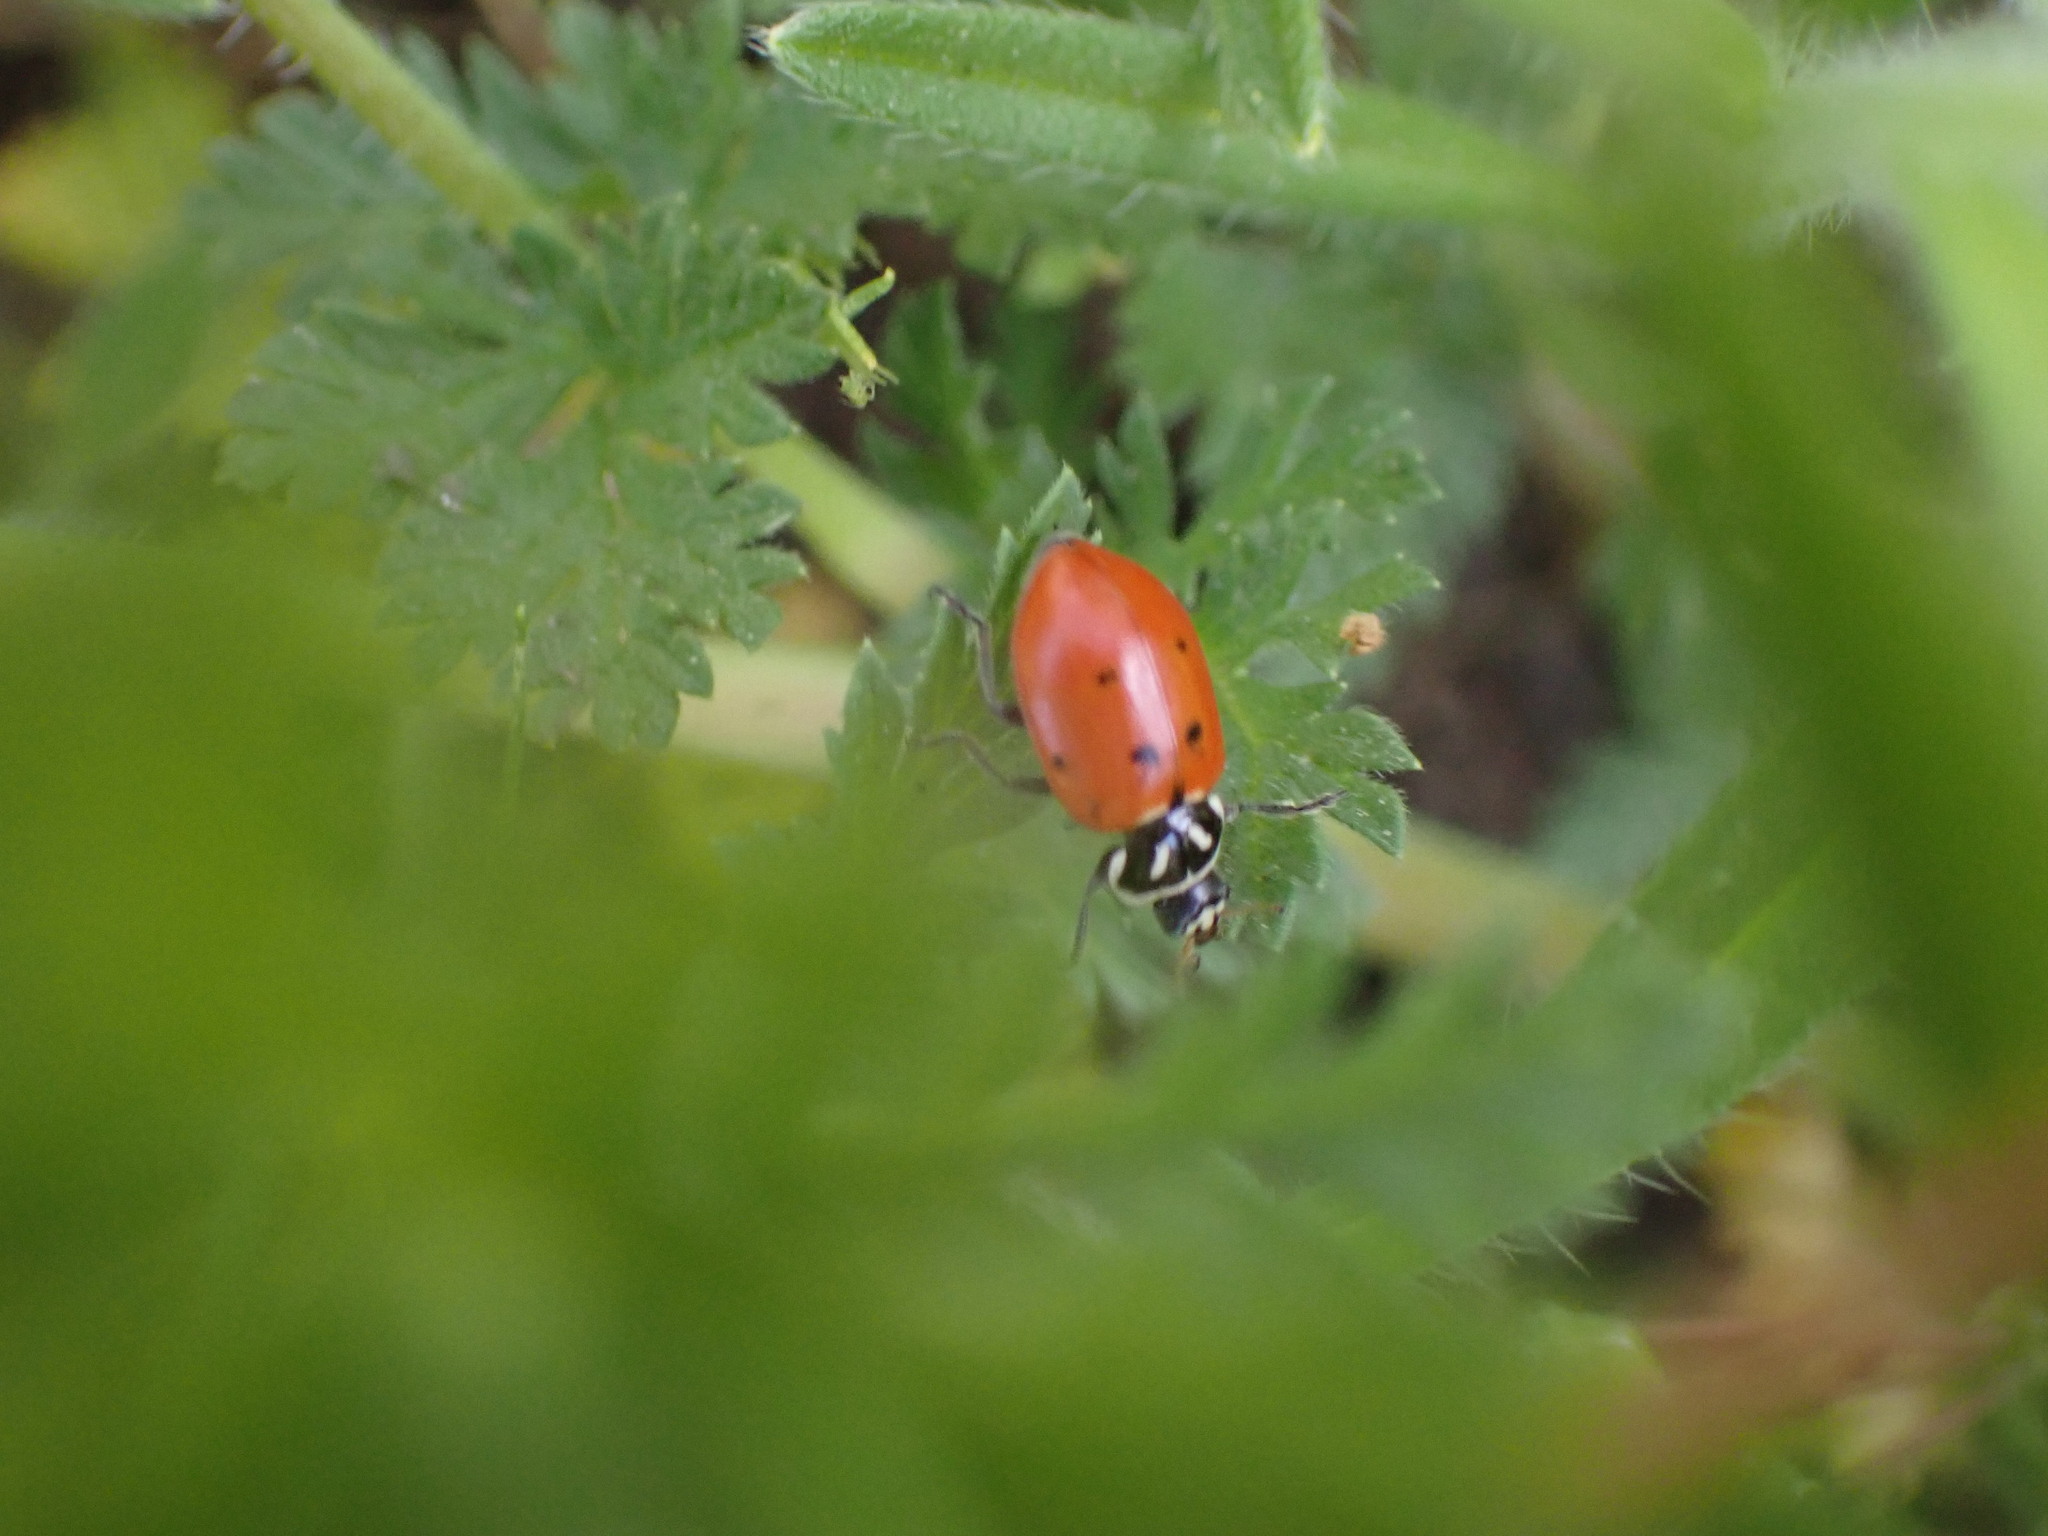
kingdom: Animalia
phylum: Arthropoda
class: Insecta
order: Coleoptera
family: Coccinellidae
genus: Hippodamia
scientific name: Hippodamia convergens
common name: Convergent lady beetle
